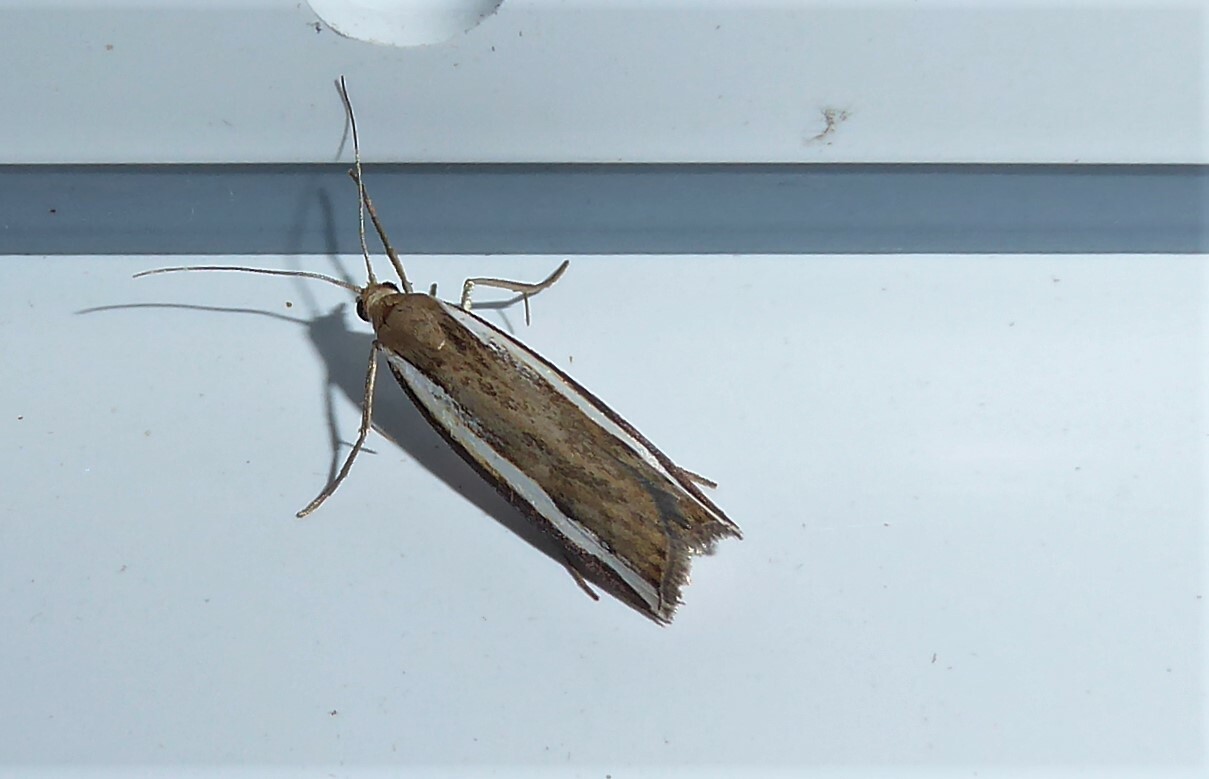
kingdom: Animalia
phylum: Arthropoda
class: Insecta
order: Lepidoptera
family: Crambidae
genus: Orocrambus
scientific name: Orocrambus flexuosellus
